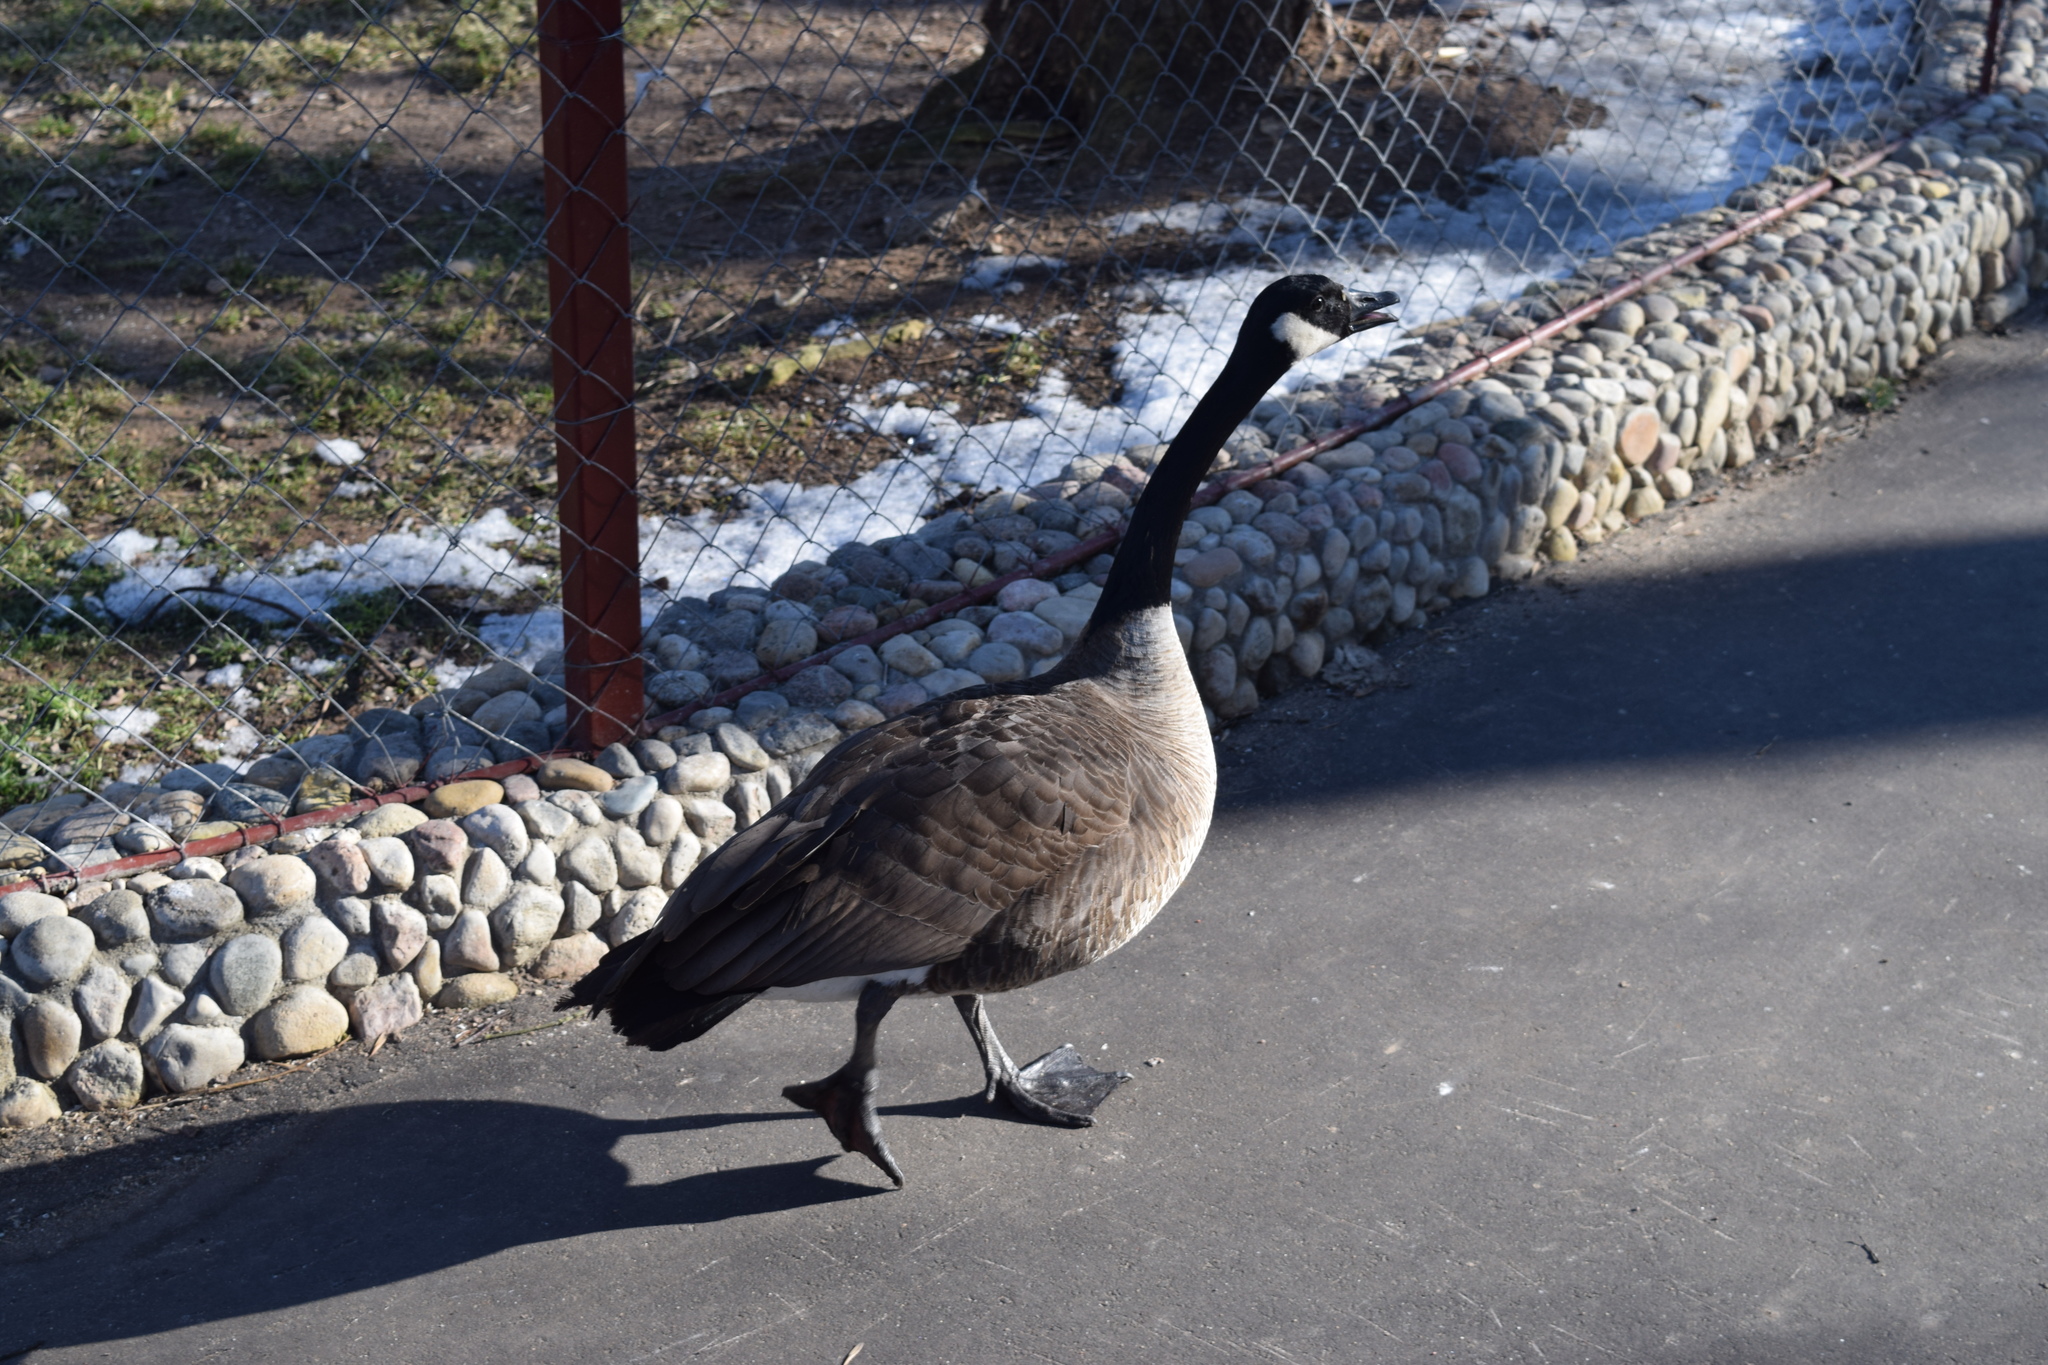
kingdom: Animalia
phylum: Chordata
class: Aves
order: Anseriformes
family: Anatidae
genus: Branta
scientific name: Branta canadensis
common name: Canada goose
